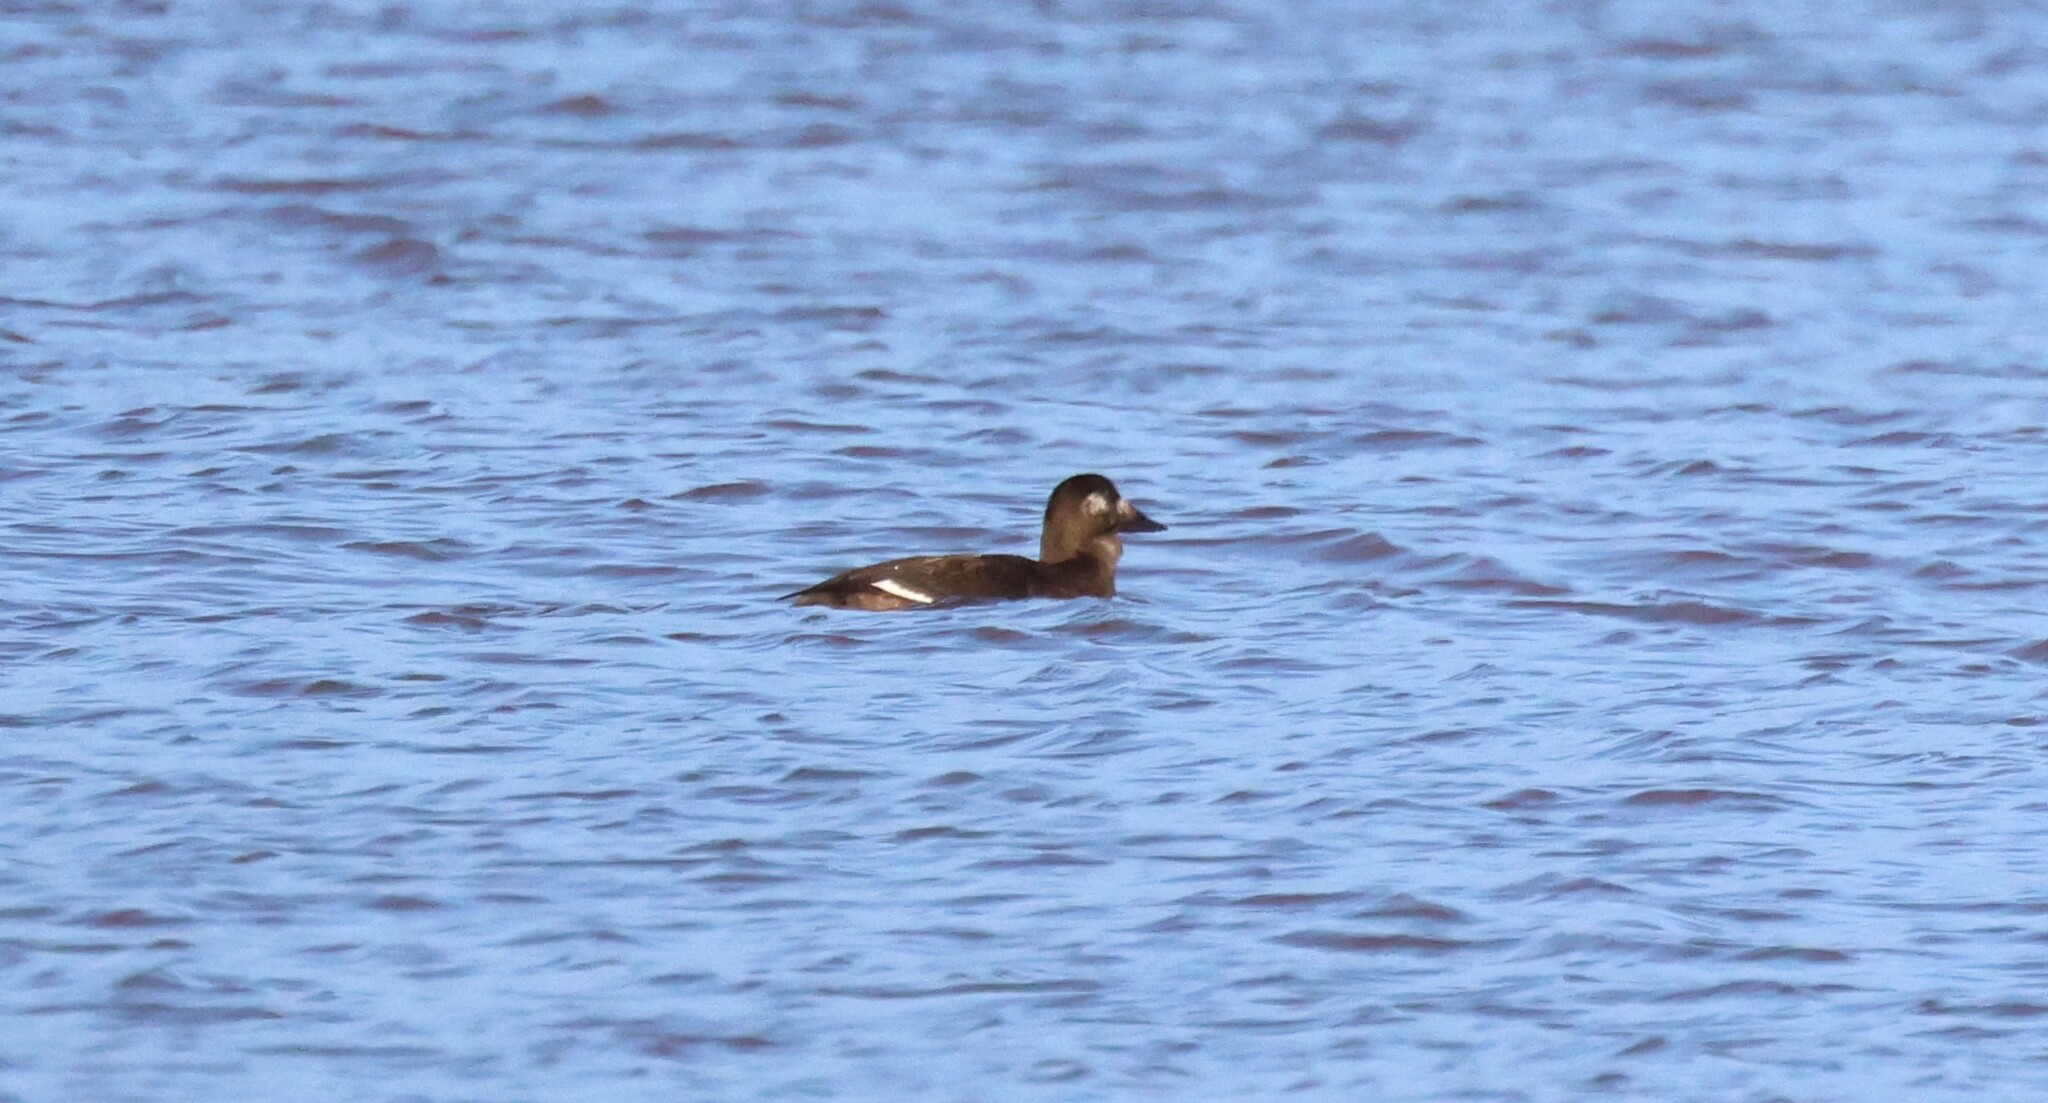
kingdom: Animalia
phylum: Chordata
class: Aves
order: Anseriformes
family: Anatidae
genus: Melanitta
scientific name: Melanitta deglandi
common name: White-winged scoter
